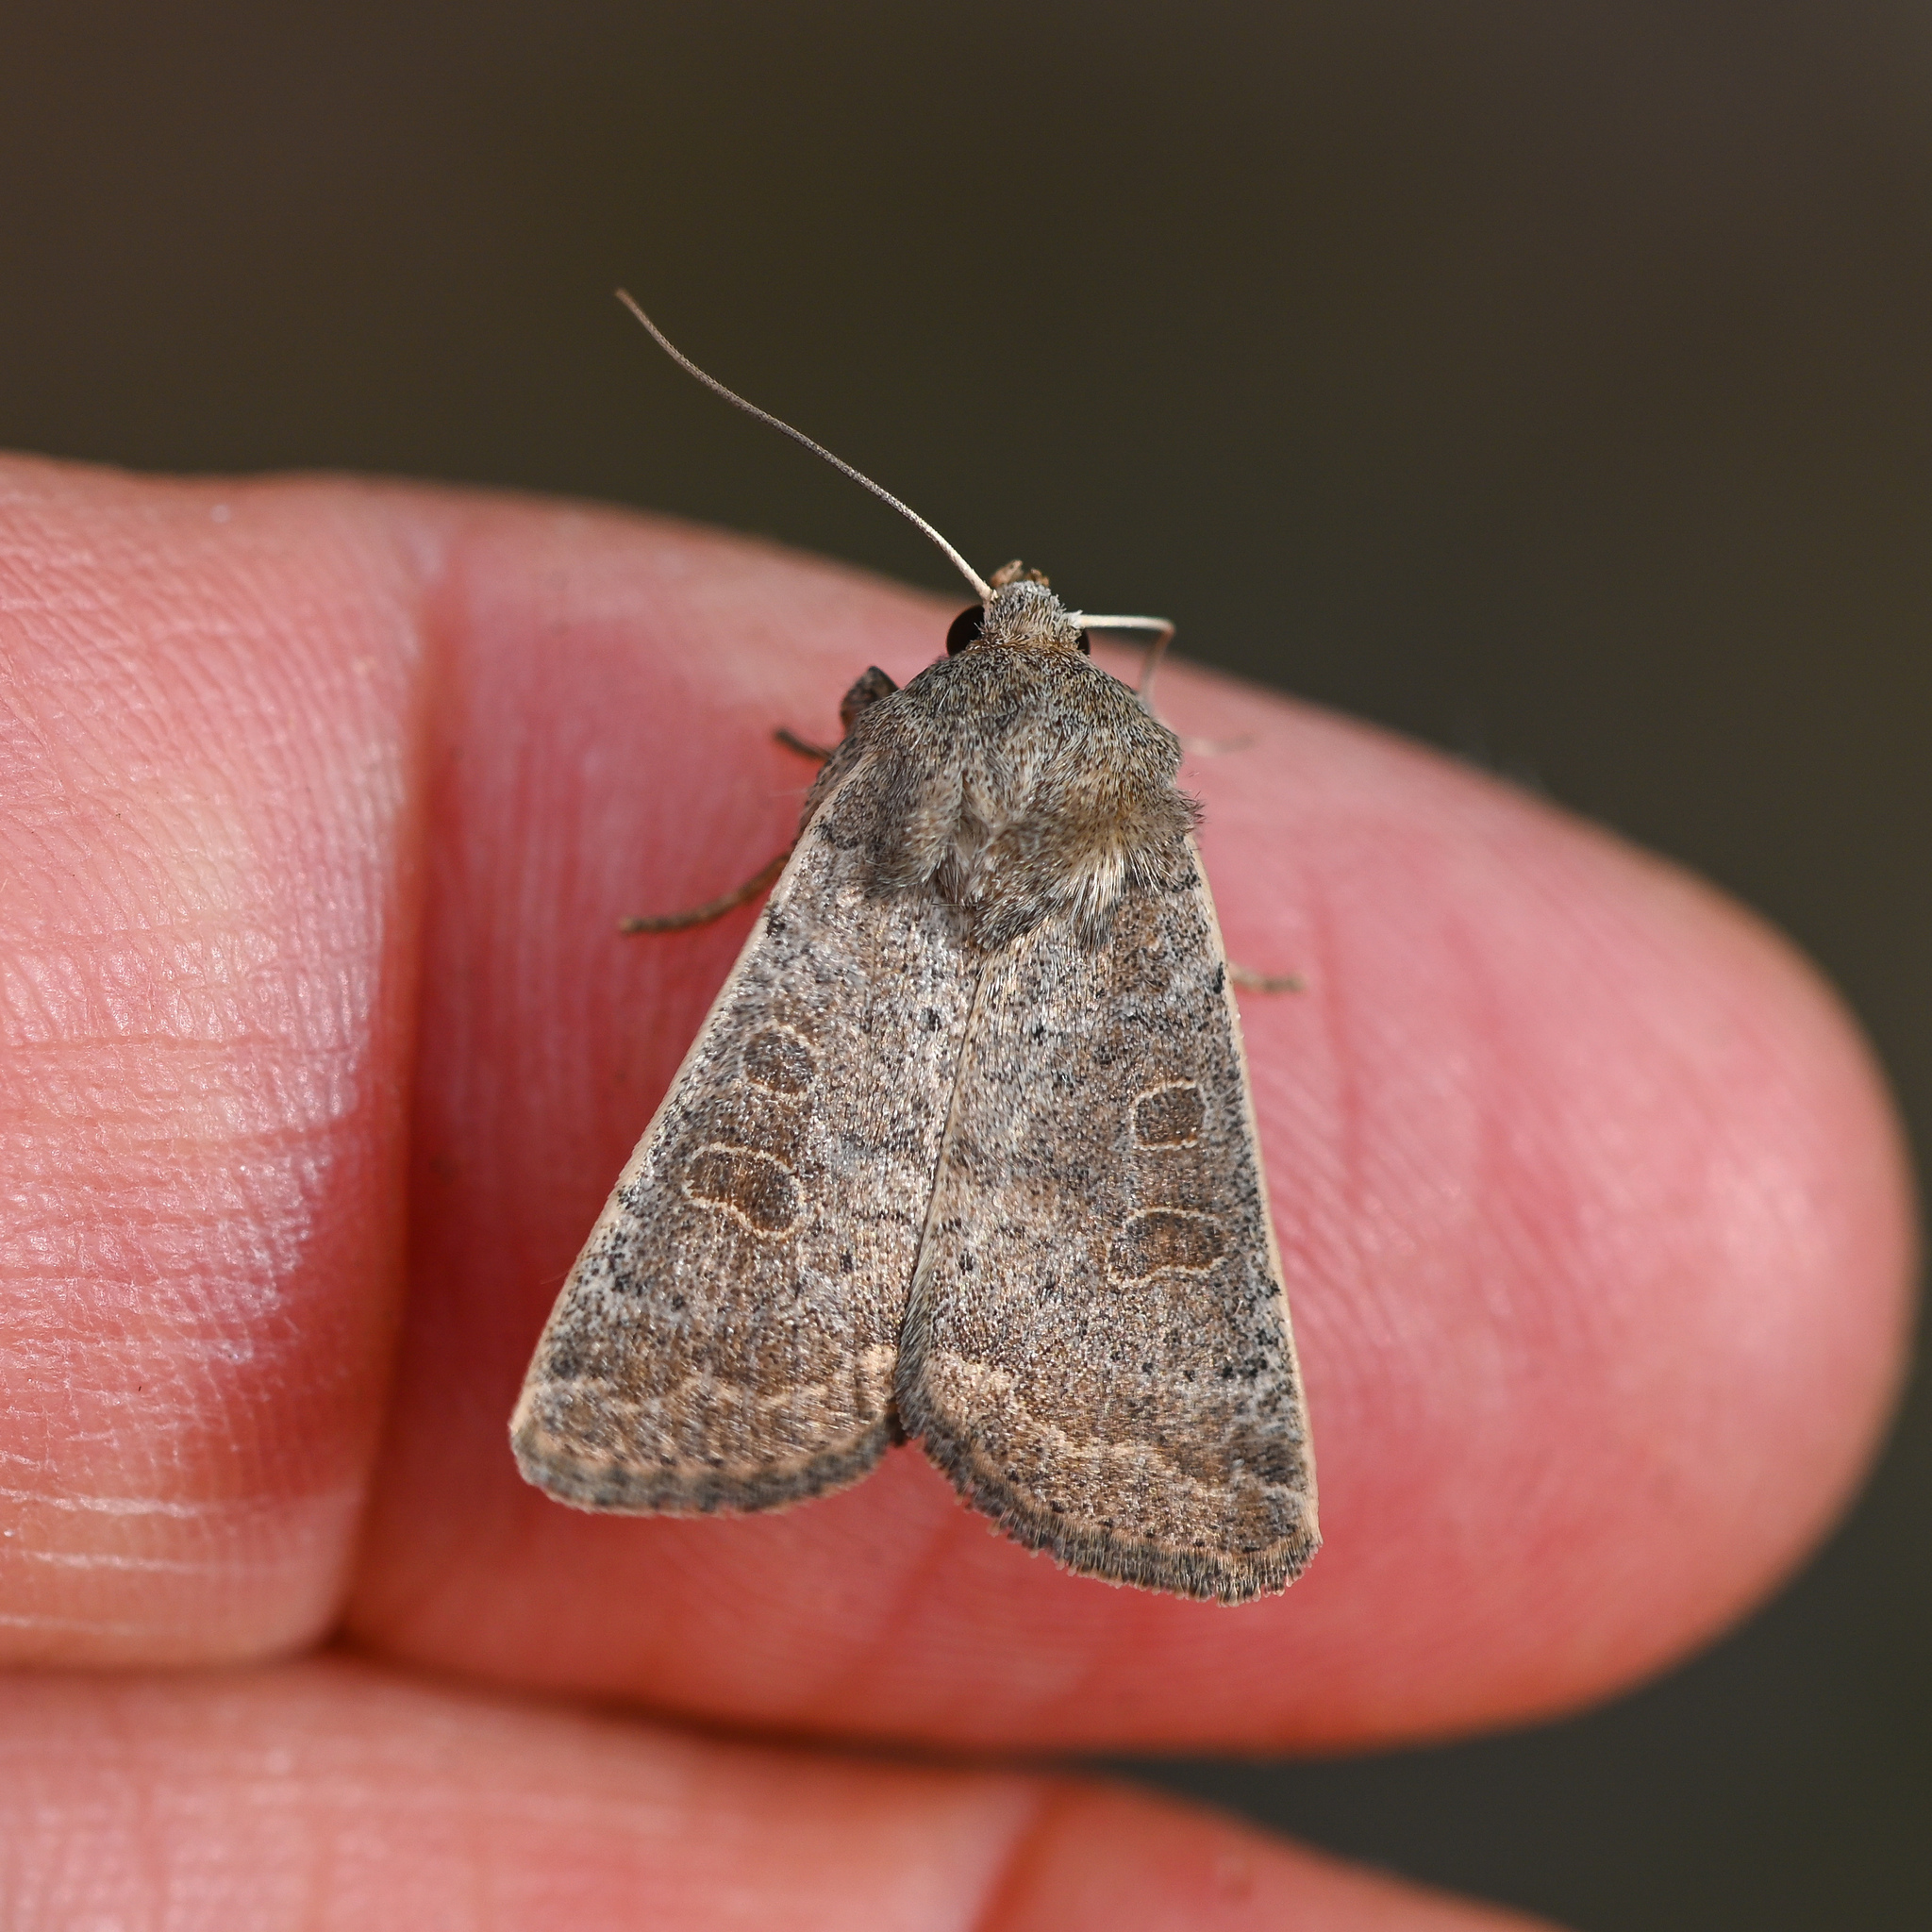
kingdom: Animalia
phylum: Arthropoda
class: Insecta
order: Lepidoptera
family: Noctuidae
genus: Hoplodrina
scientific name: Hoplodrina ambigua
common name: Vine's rustic
